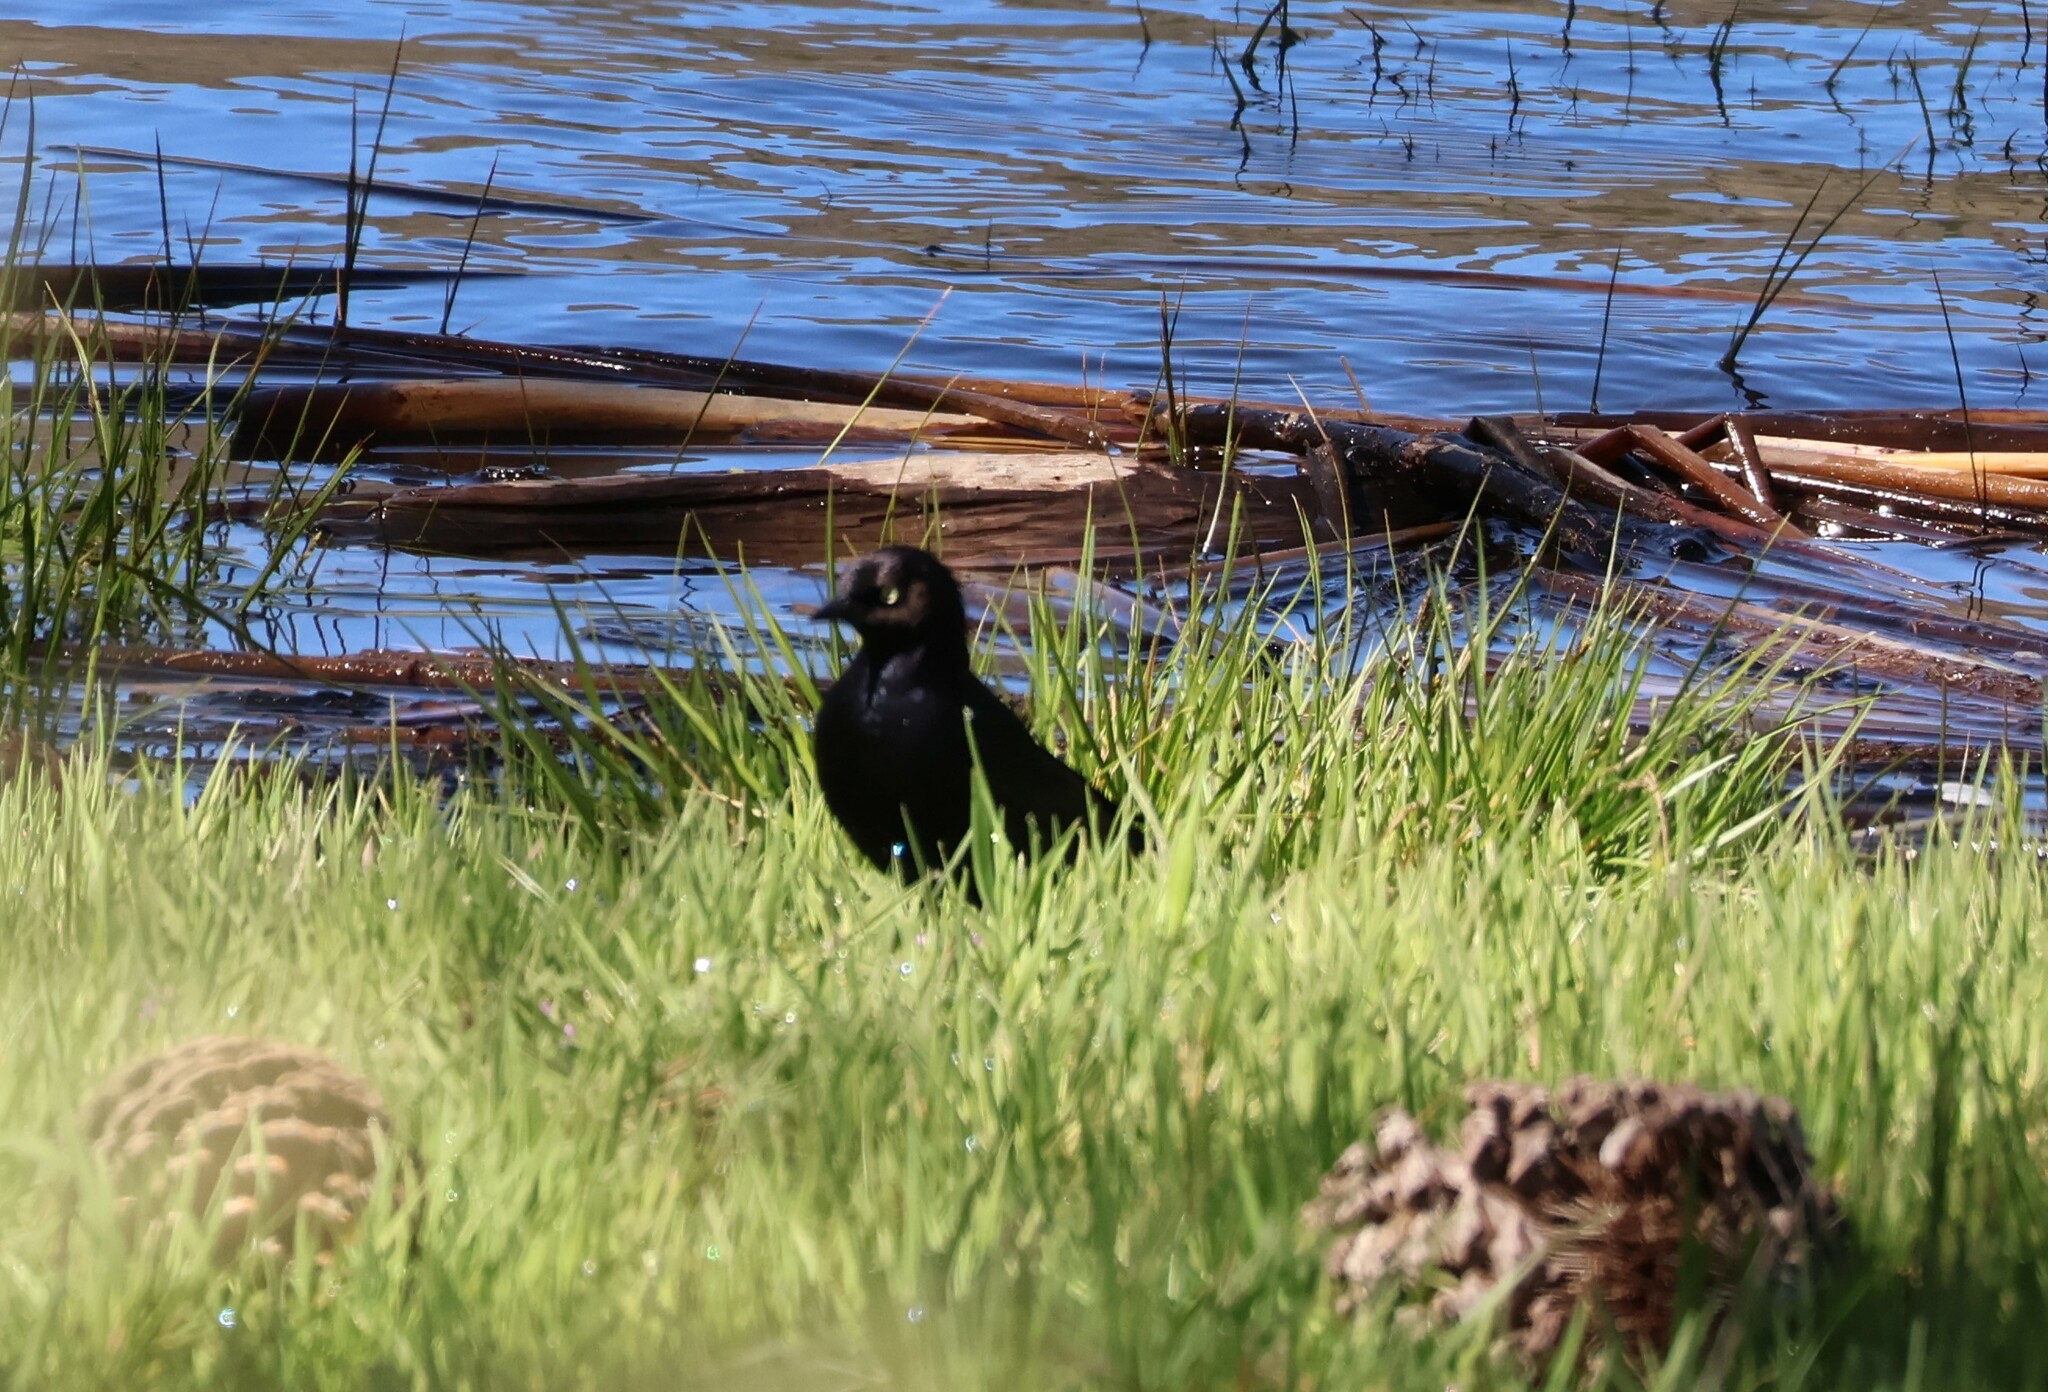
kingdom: Animalia
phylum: Chordata
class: Aves
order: Passeriformes
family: Icteridae
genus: Euphagus
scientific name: Euphagus cyanocephalus
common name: Brewer's blackbird
